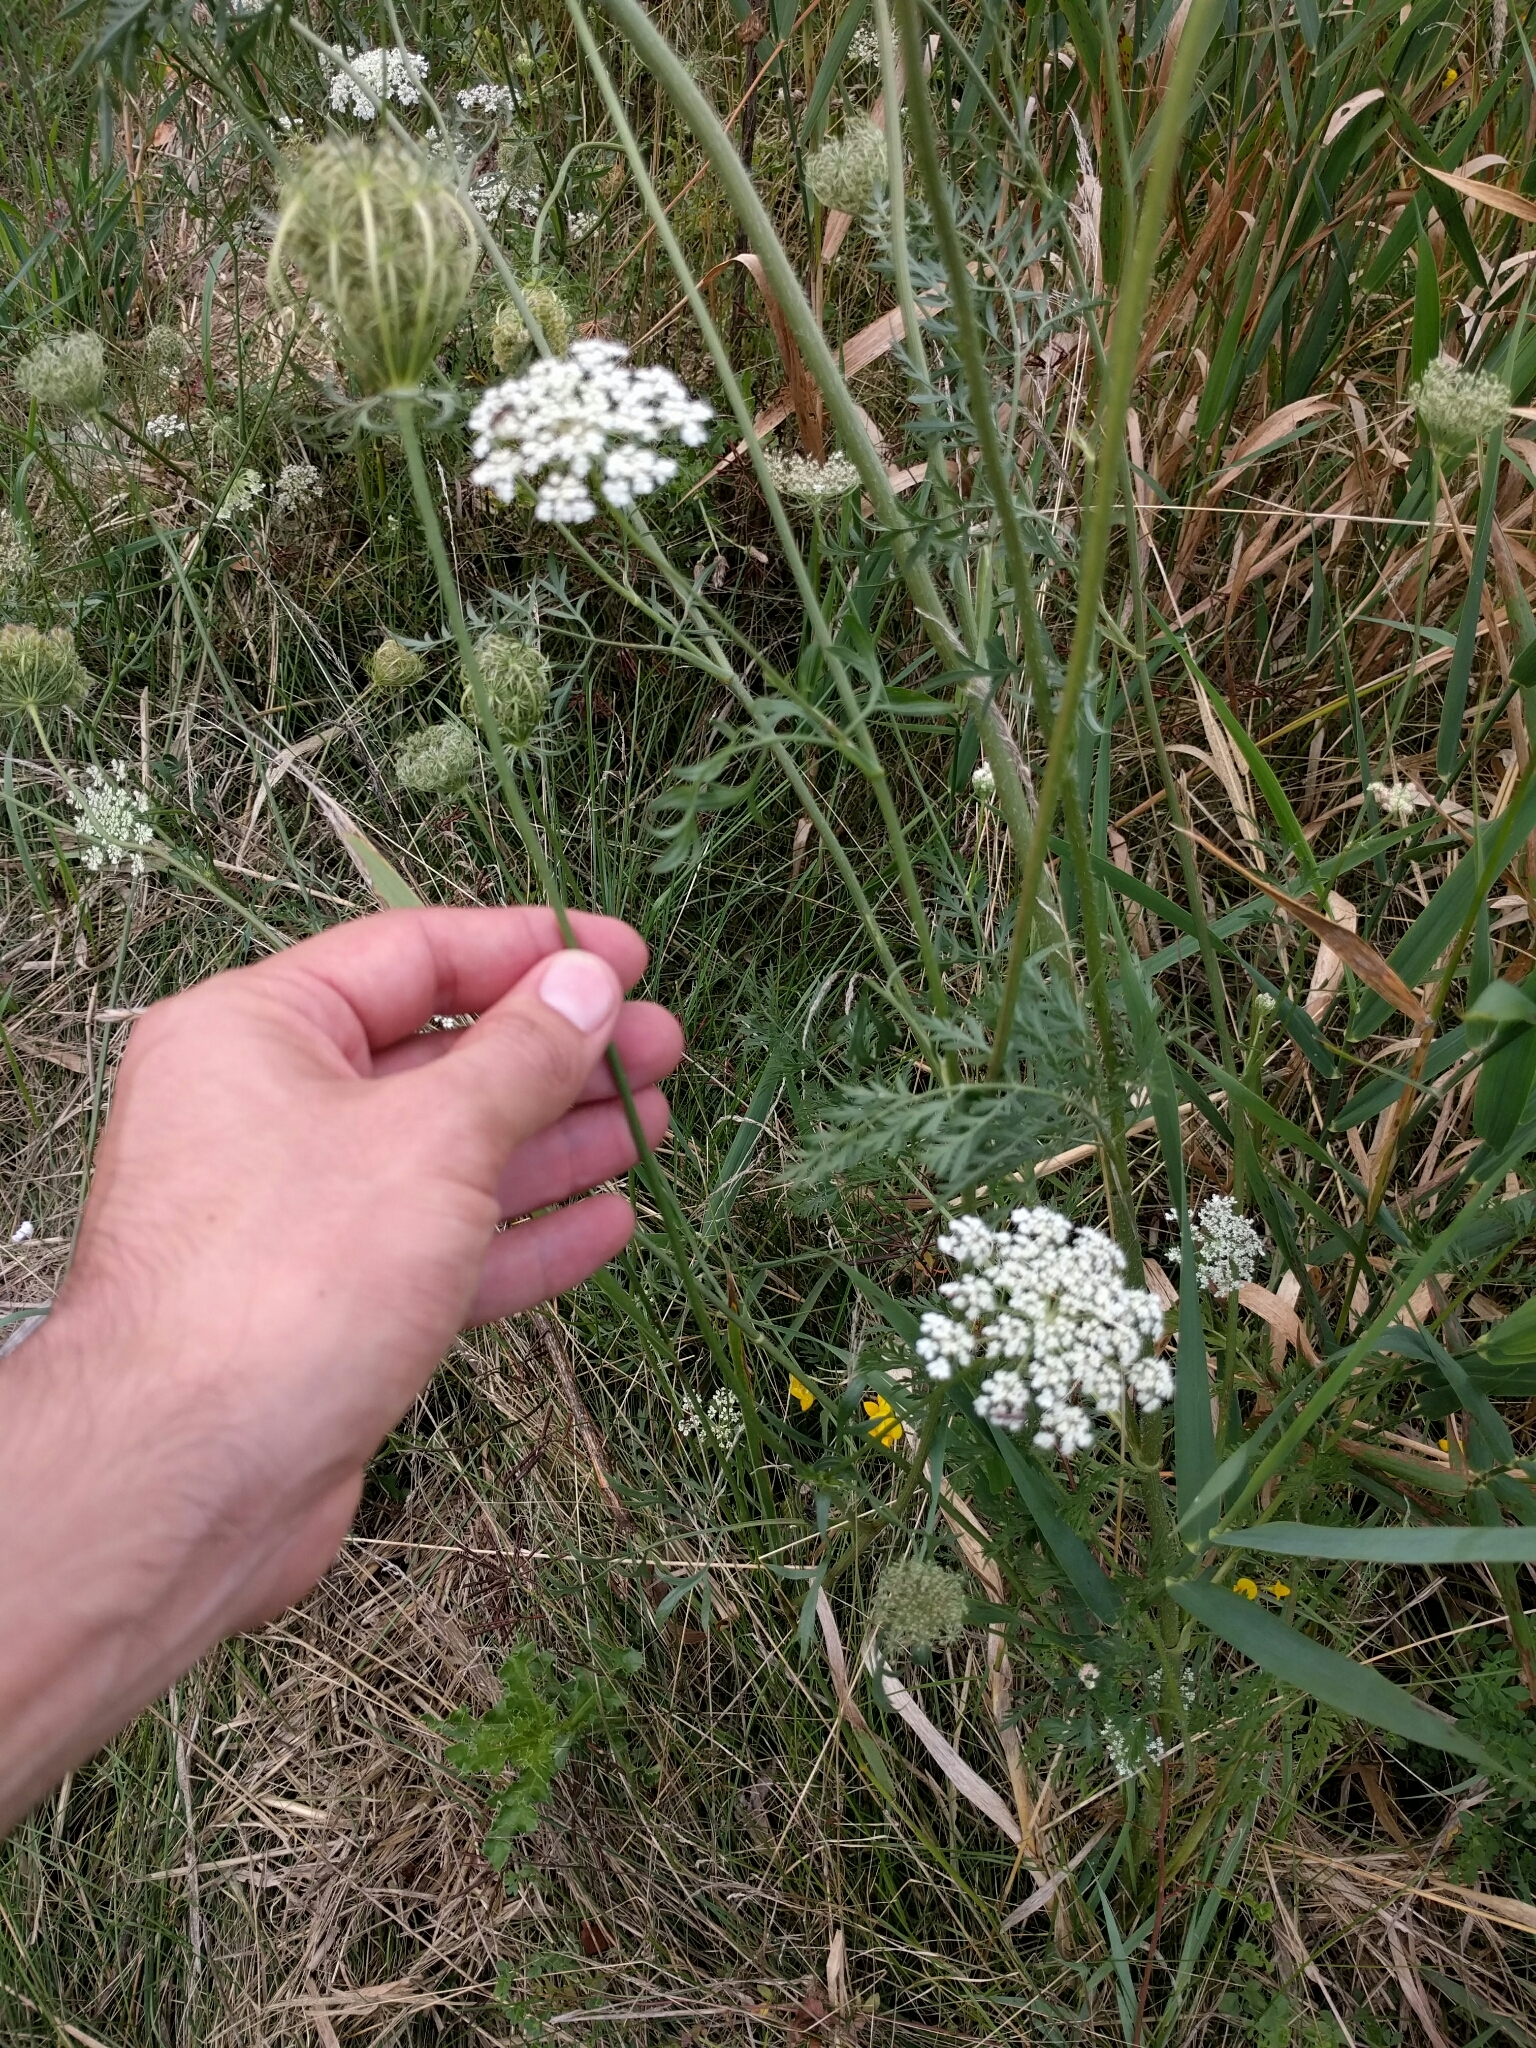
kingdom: Plantae
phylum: Tracheophyta
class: Magnoliopsida
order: Apiales
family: Apiaceae
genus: Daucus
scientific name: Daucus carota
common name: Wild carrot
